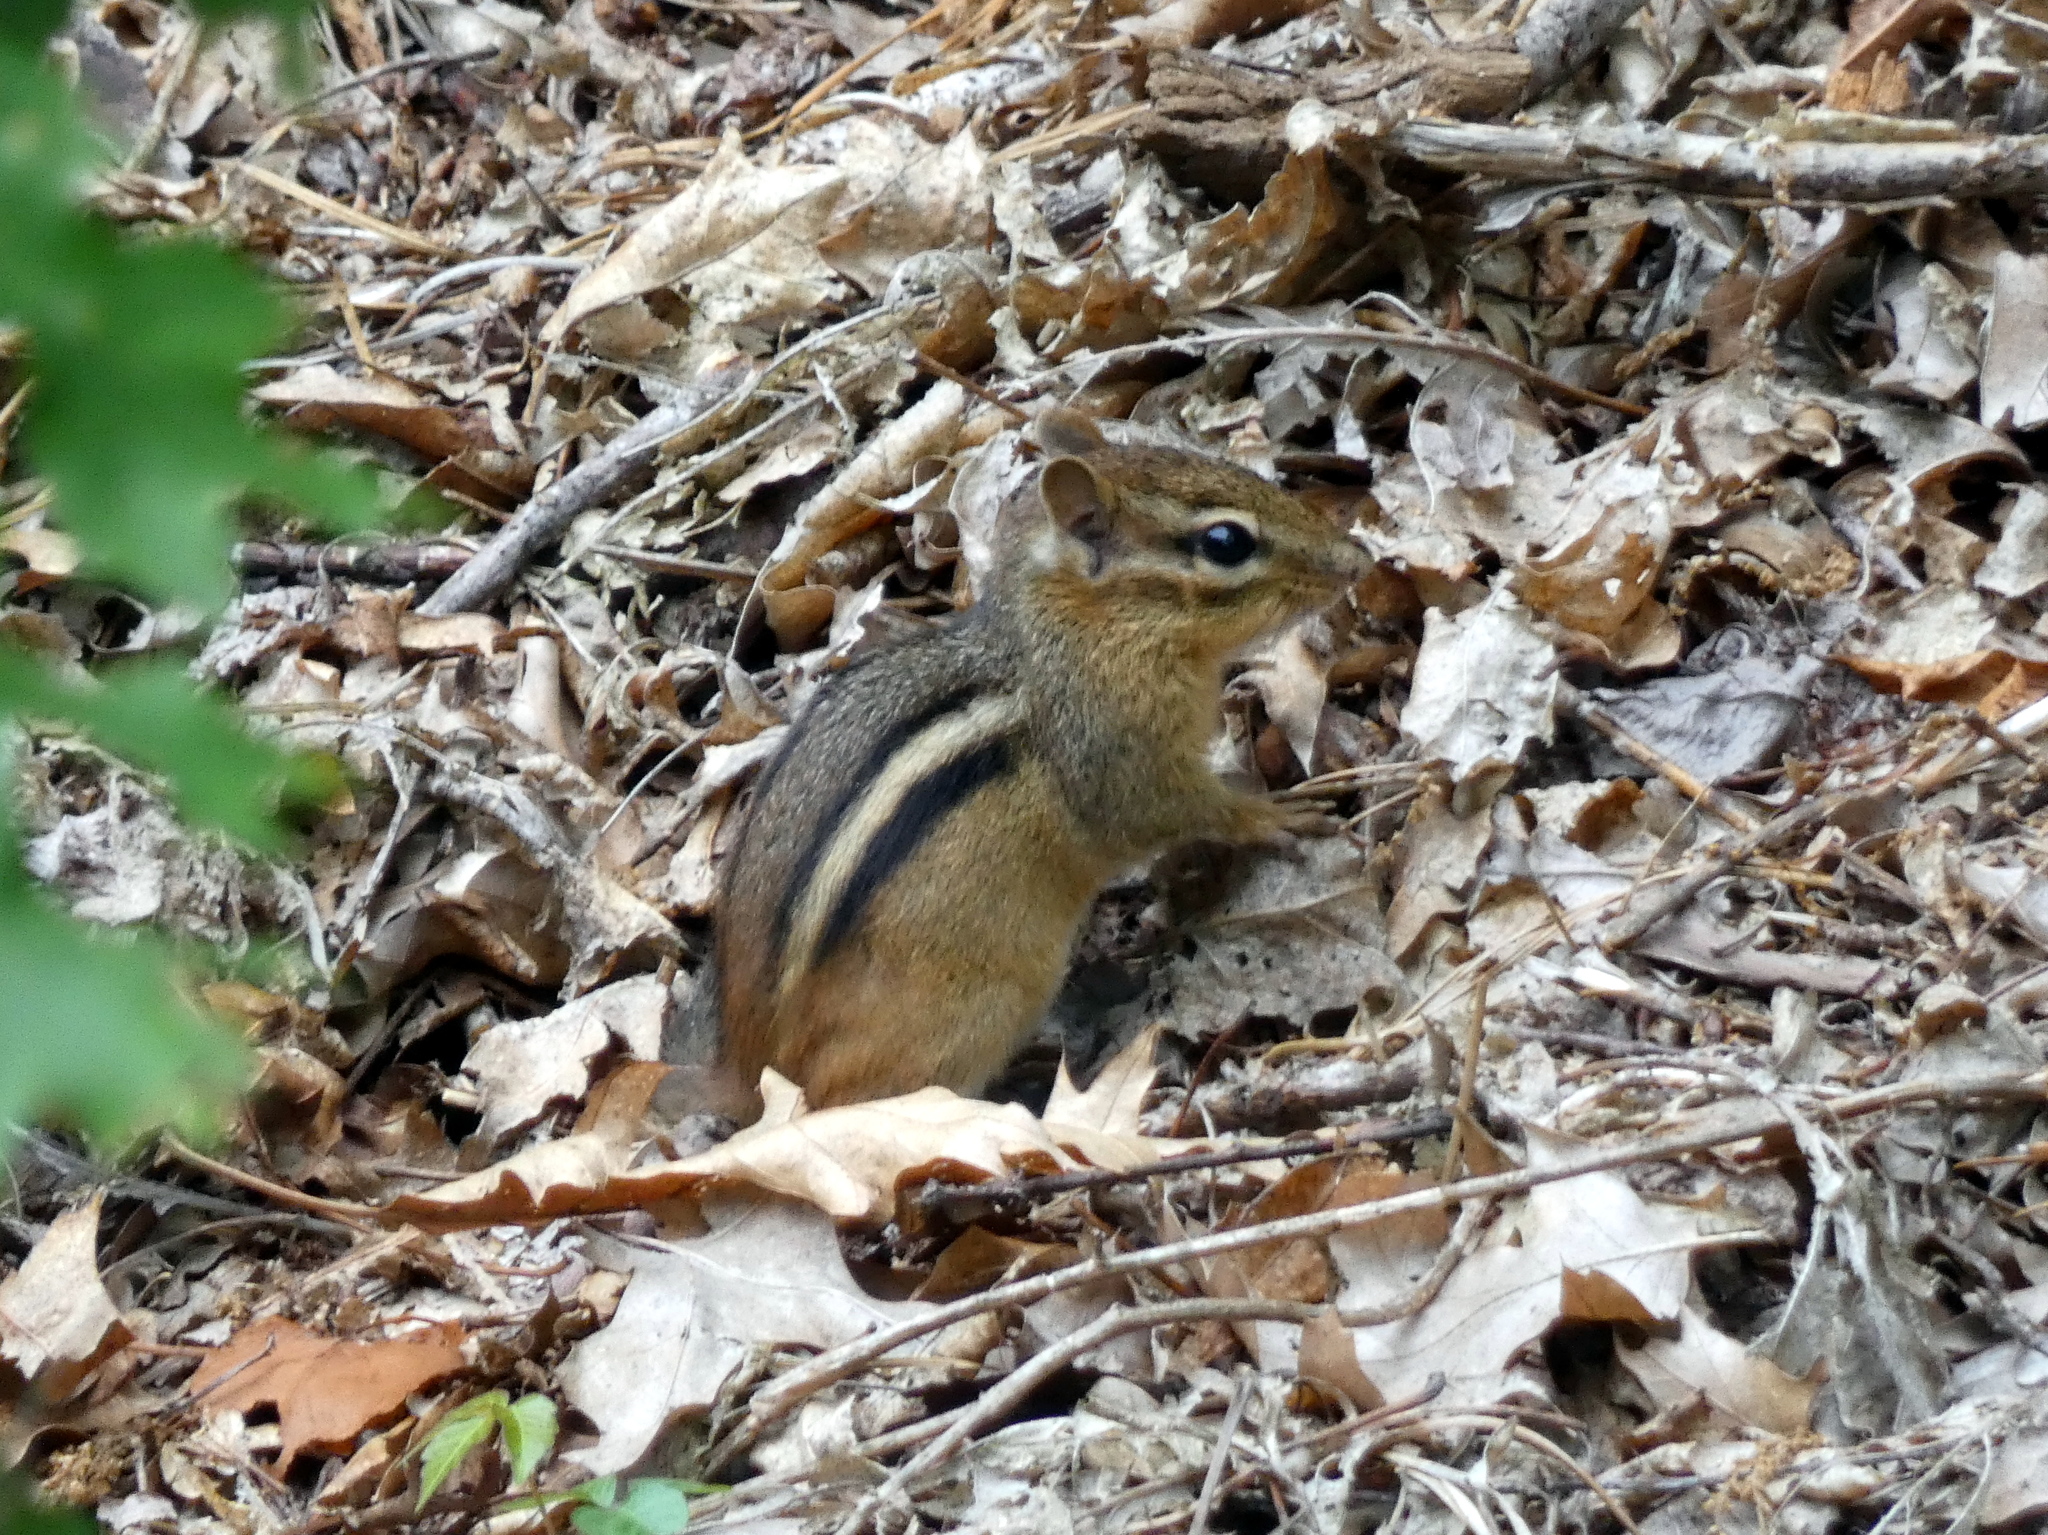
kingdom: Animalia
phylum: Chordata
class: Mammalia
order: Rodentia
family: Sciuridae
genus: Tamias
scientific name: Tamias striatus
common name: Eastern chipmunk
